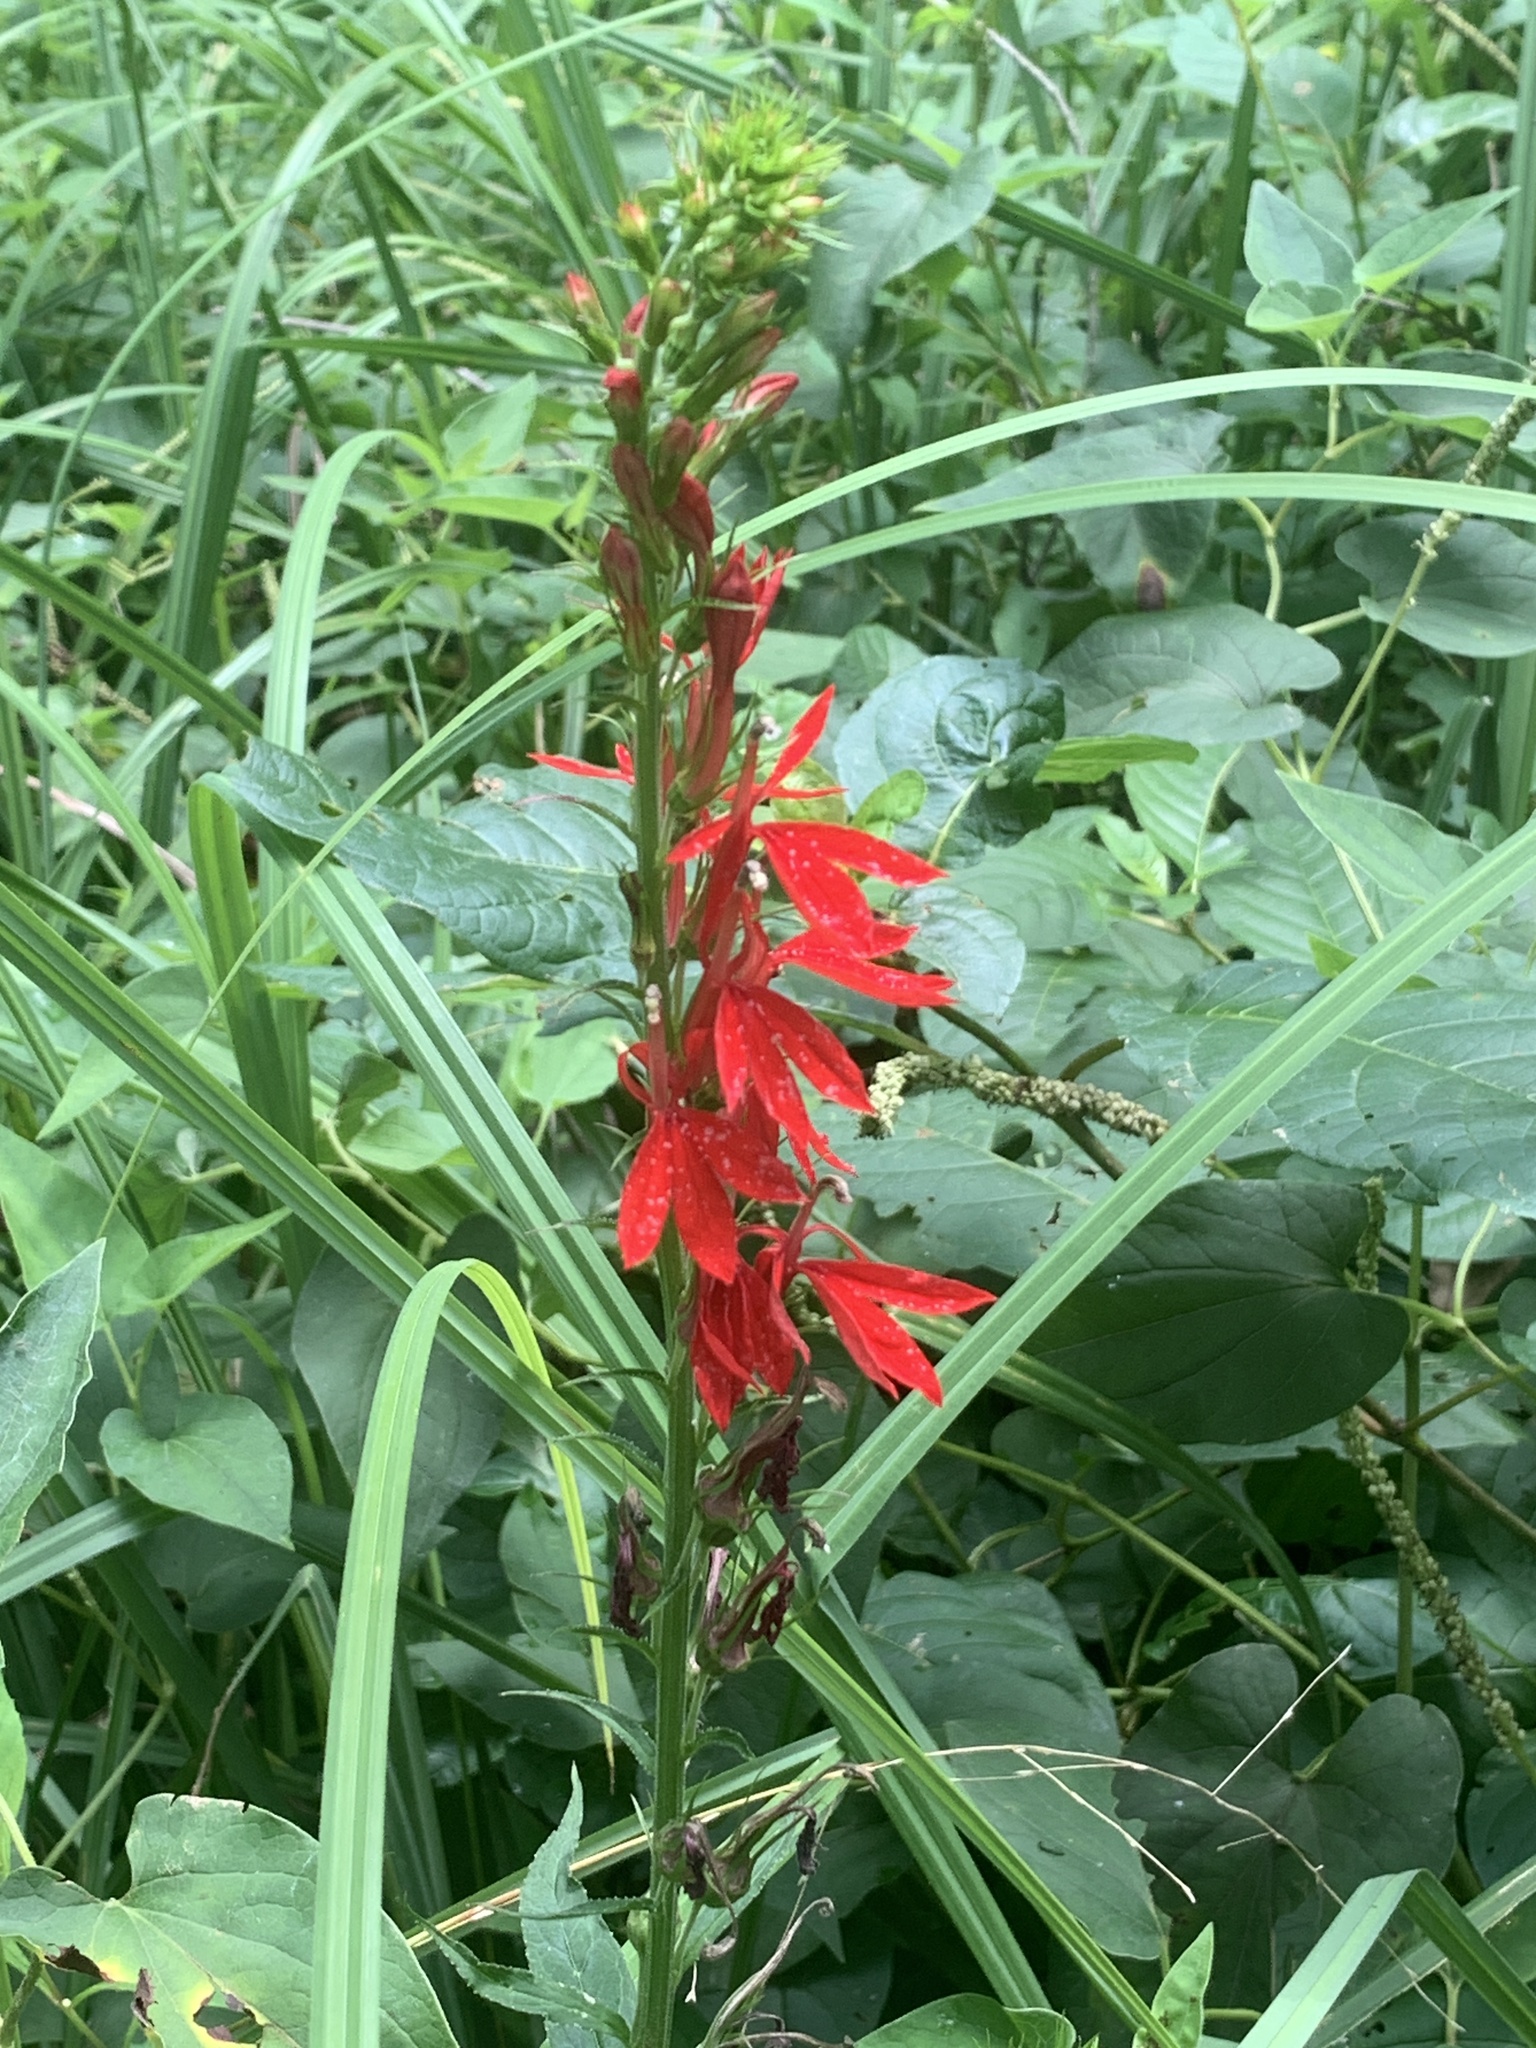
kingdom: Plantae
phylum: Tracheophyta
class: Magnoliopsida
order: Asterales
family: Campanulaceae
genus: Lobelia
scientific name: Lobelia cardinalis
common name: Cardinal flower
